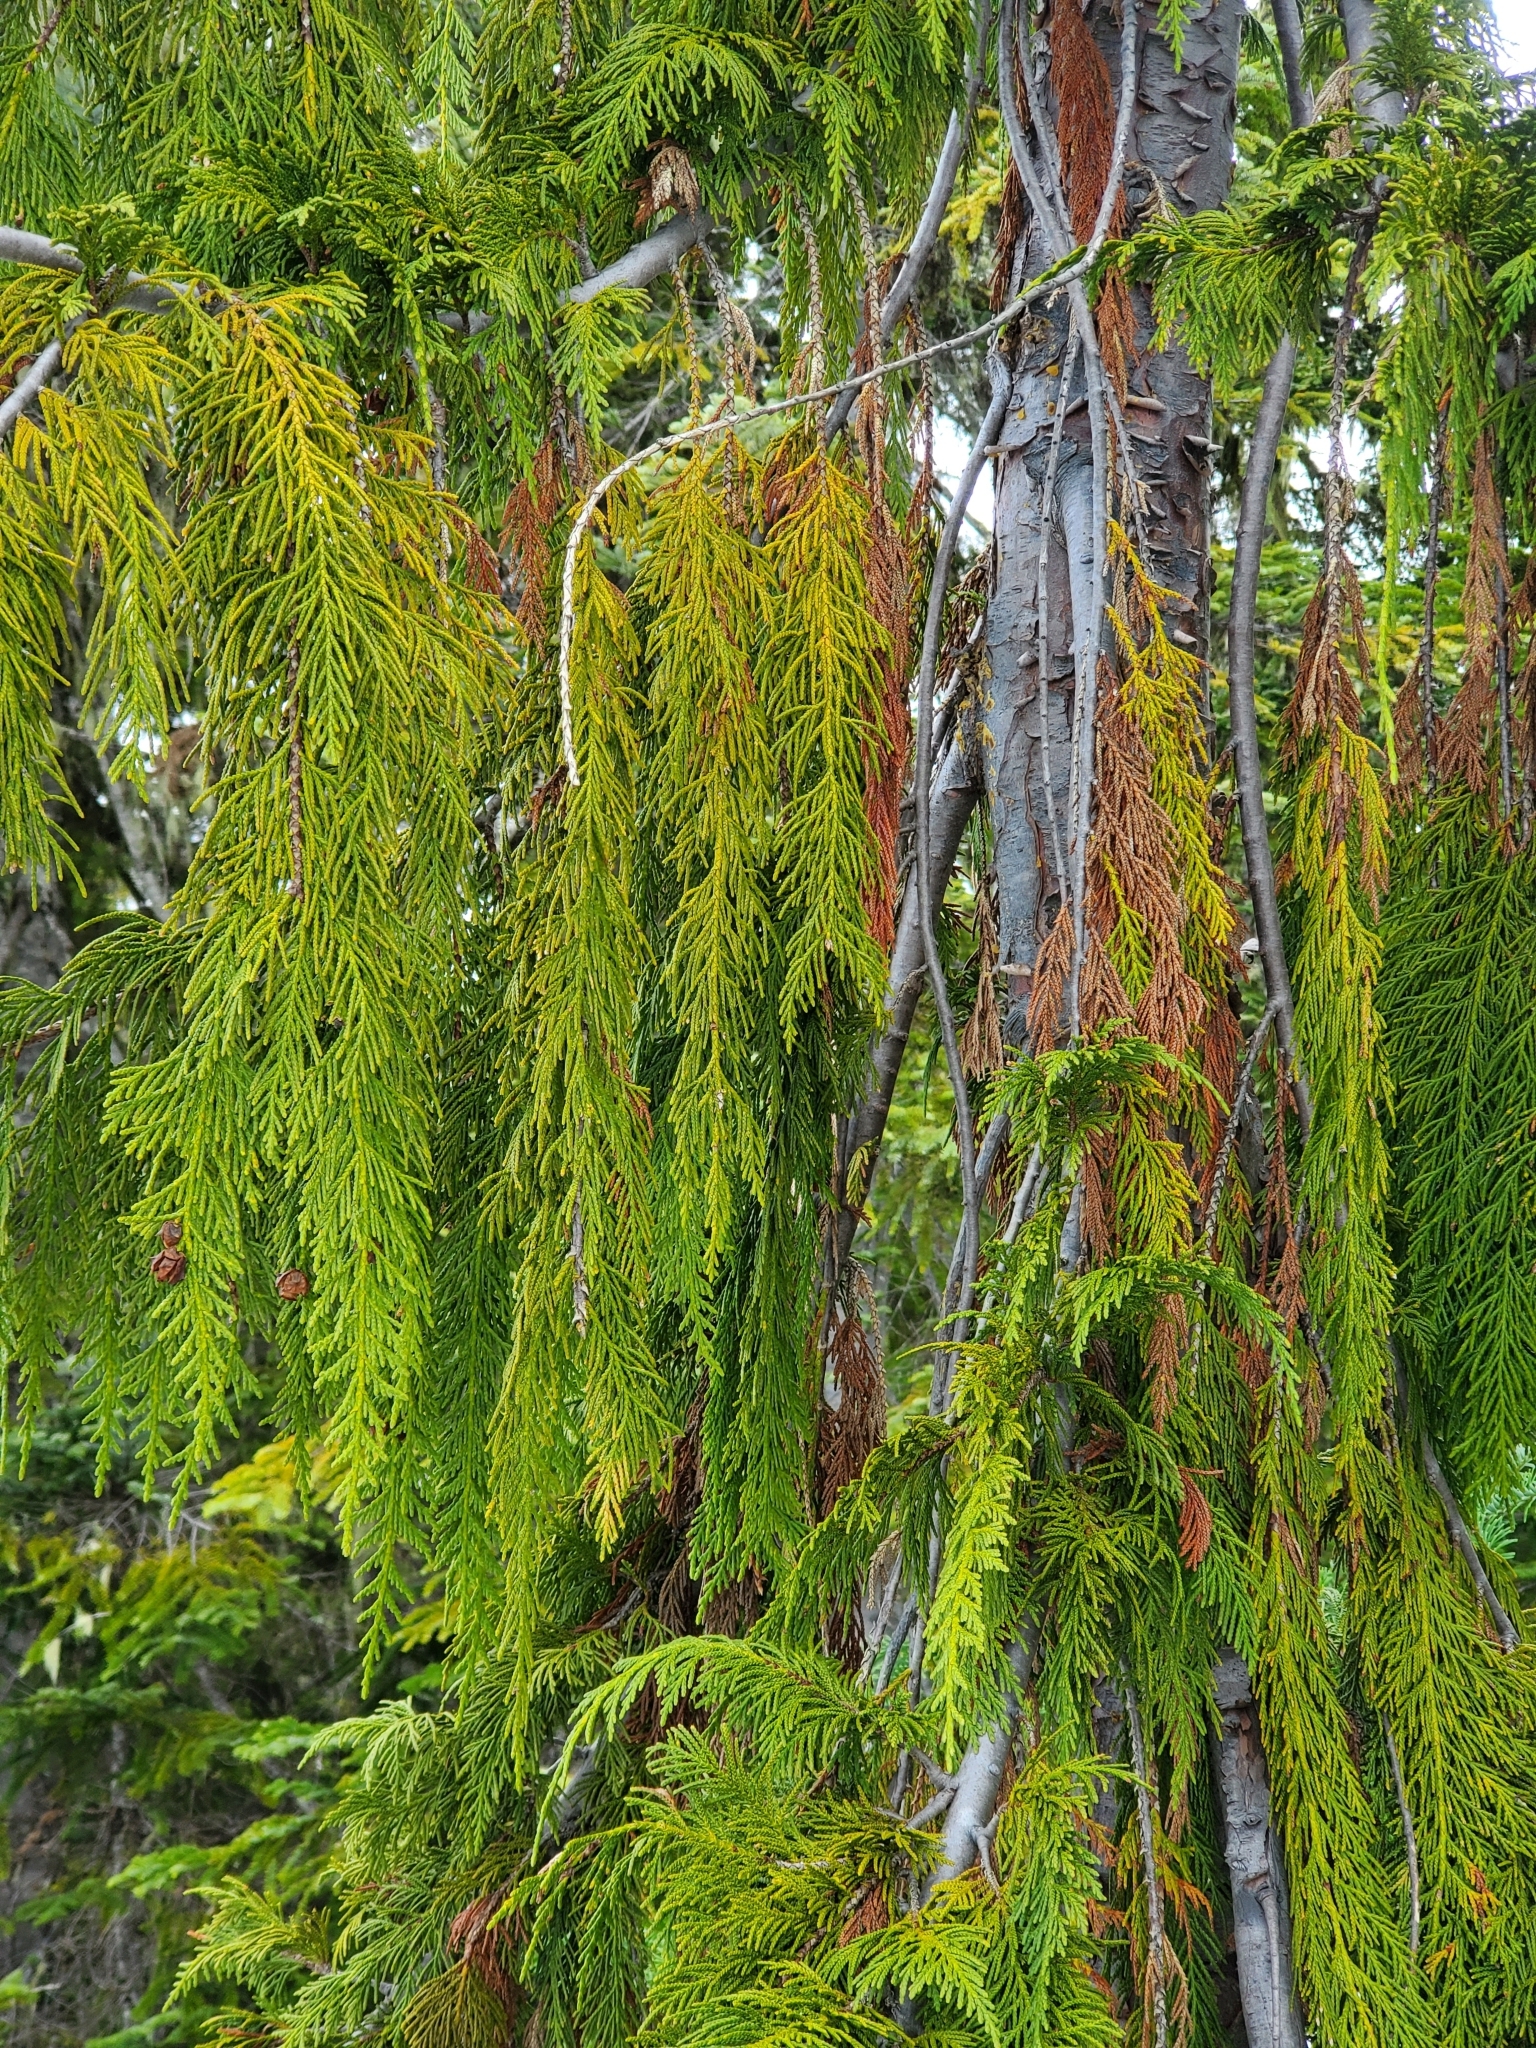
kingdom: Plantae
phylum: Tracheophyta
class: Pinopsida
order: Pinales
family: Cupressaceae
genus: Xanthocyparis
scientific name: Xanthocyparis nootkatensis
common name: Nootka cypress
